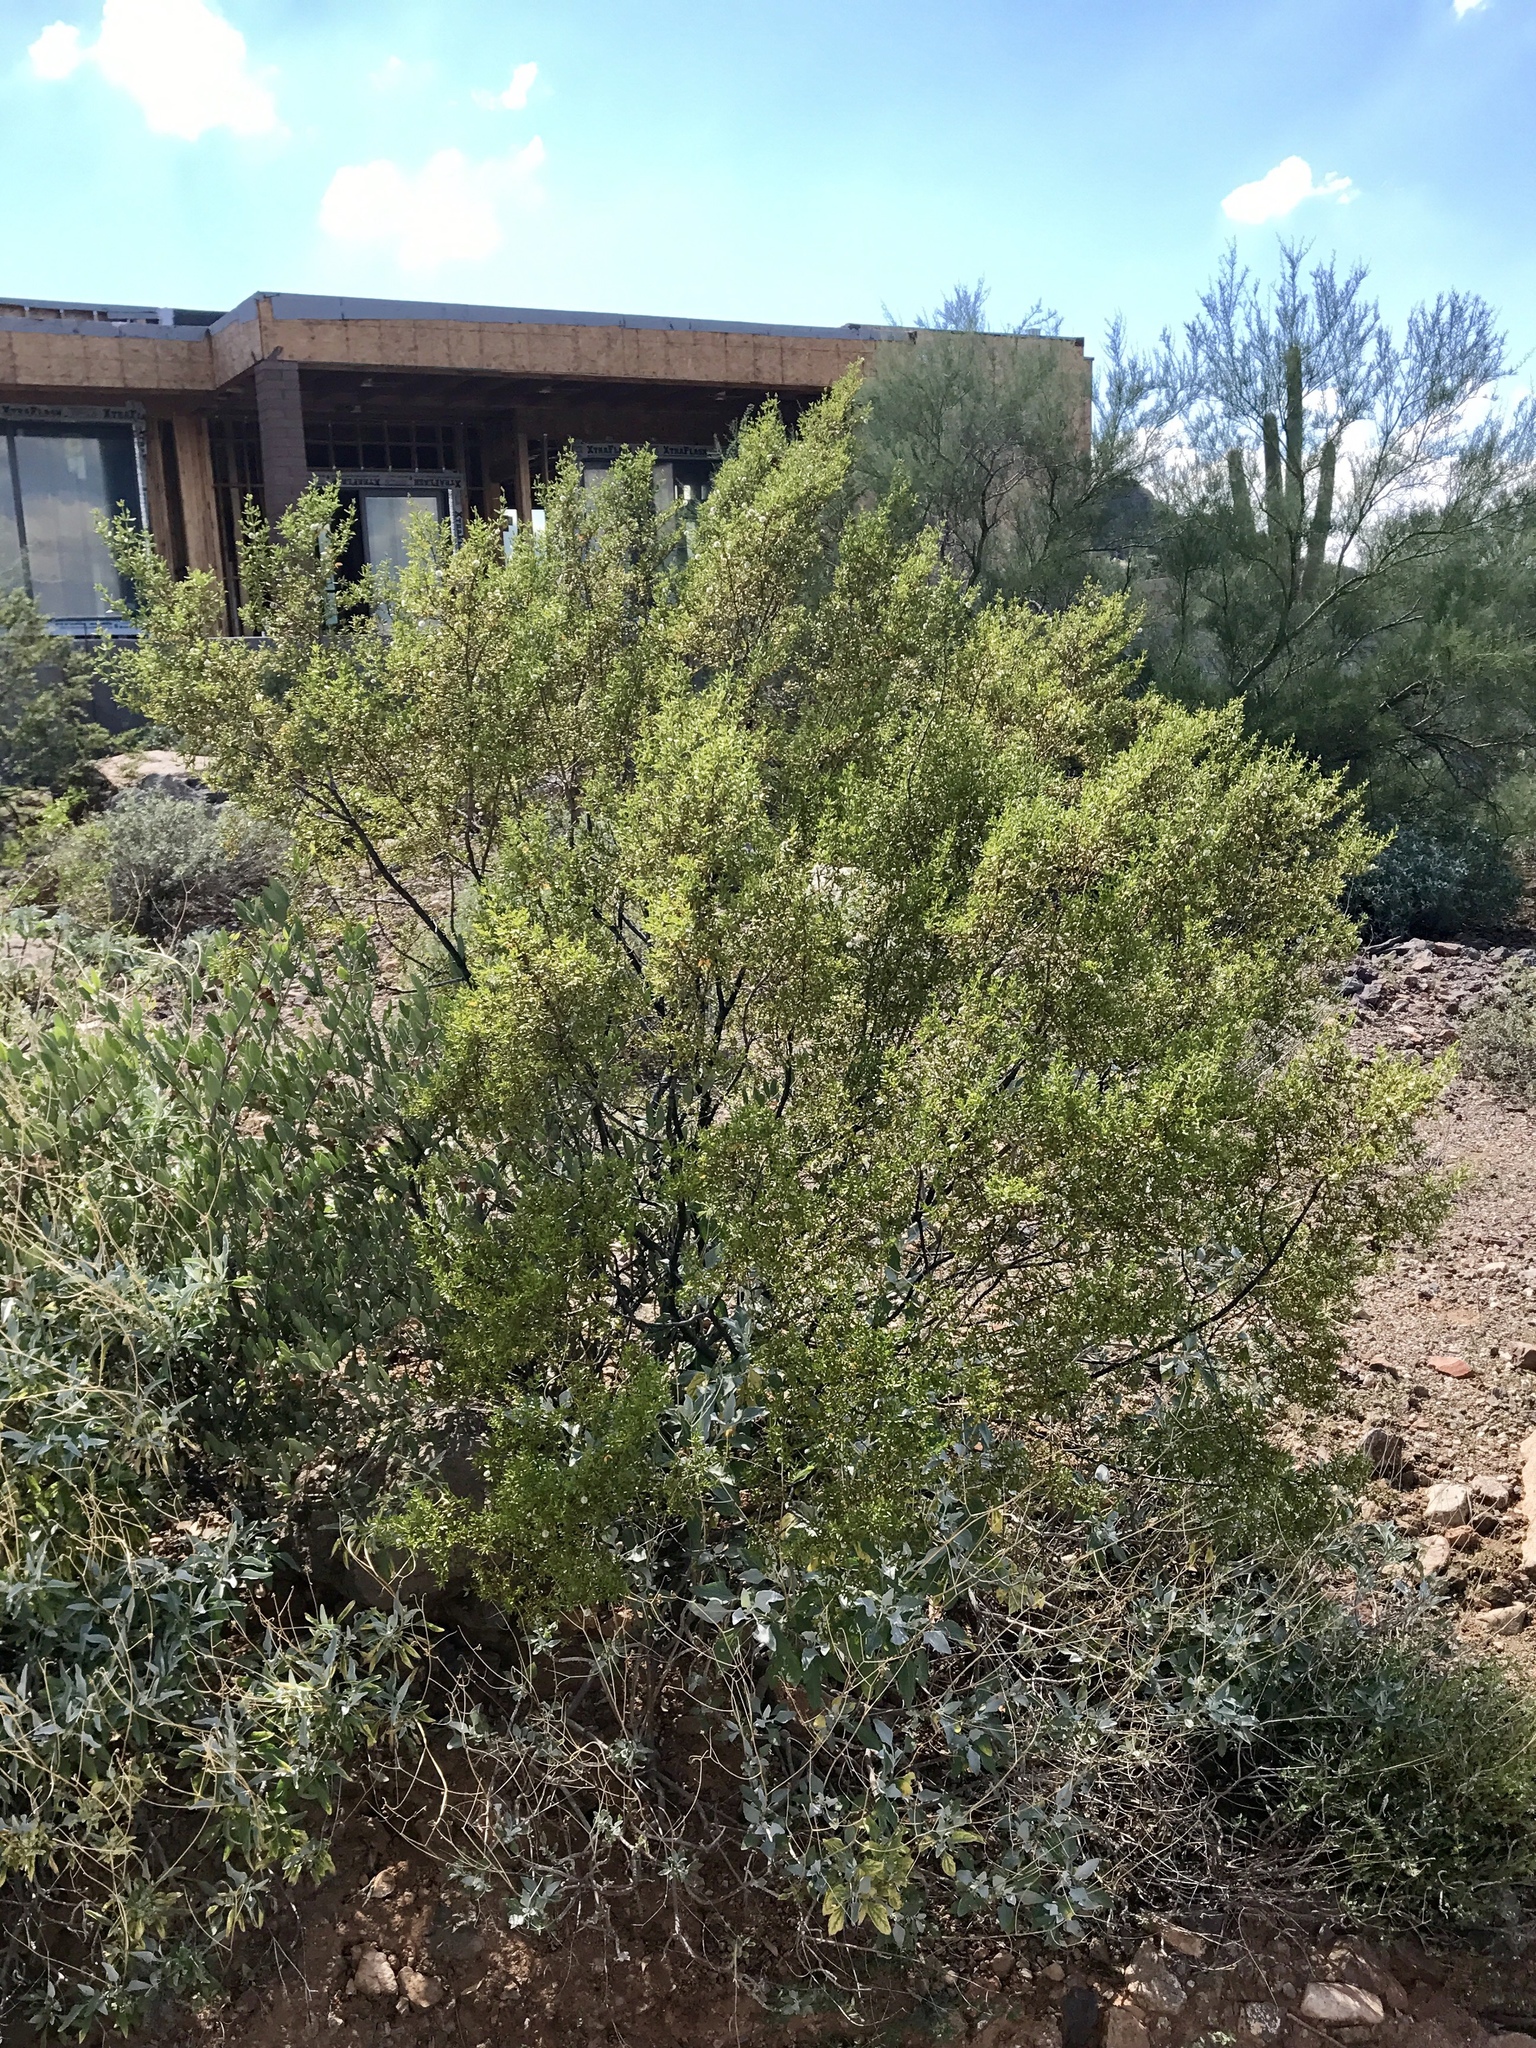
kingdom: Plantae
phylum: Tracheophyta
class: Magnoliopsida
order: Zygophyllales
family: Zygophyllaceae
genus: Larrea
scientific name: Larrea tridentata
